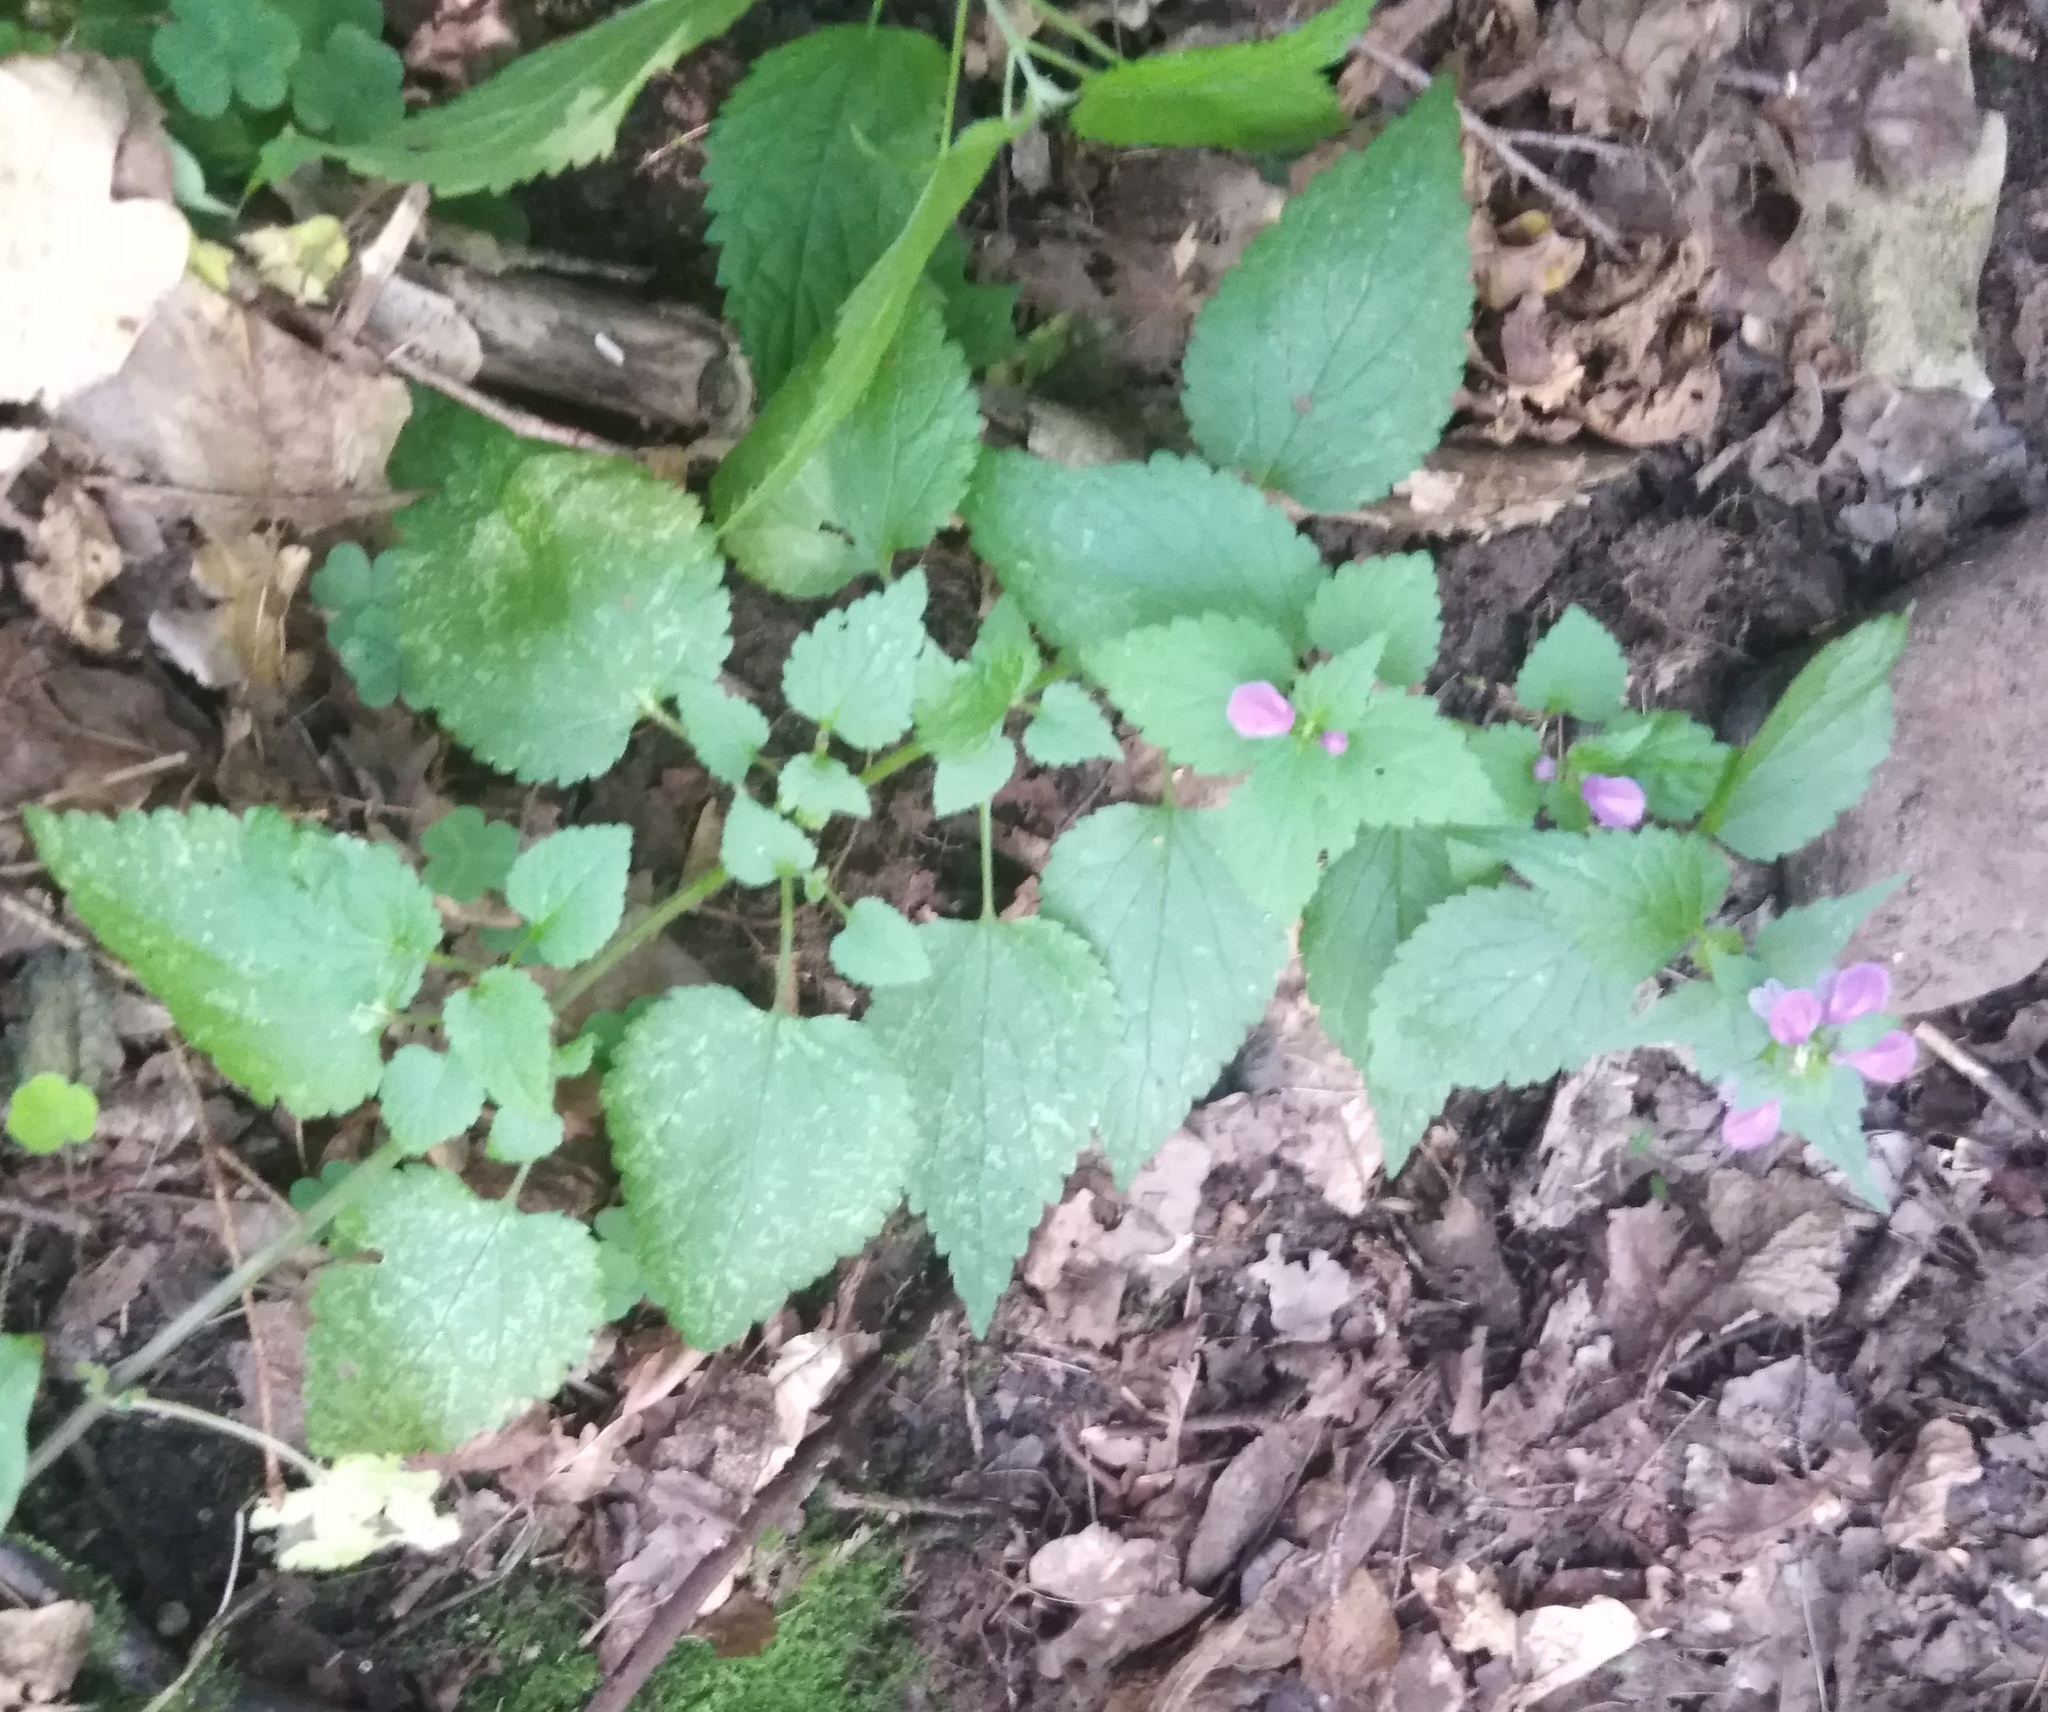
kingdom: Plantae
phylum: Tracheophyta
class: Magnoliopsida
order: Lamiales
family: Lamiaceae
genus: Lamium
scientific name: Lamium maculatum
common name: Spotted dead-nettle
